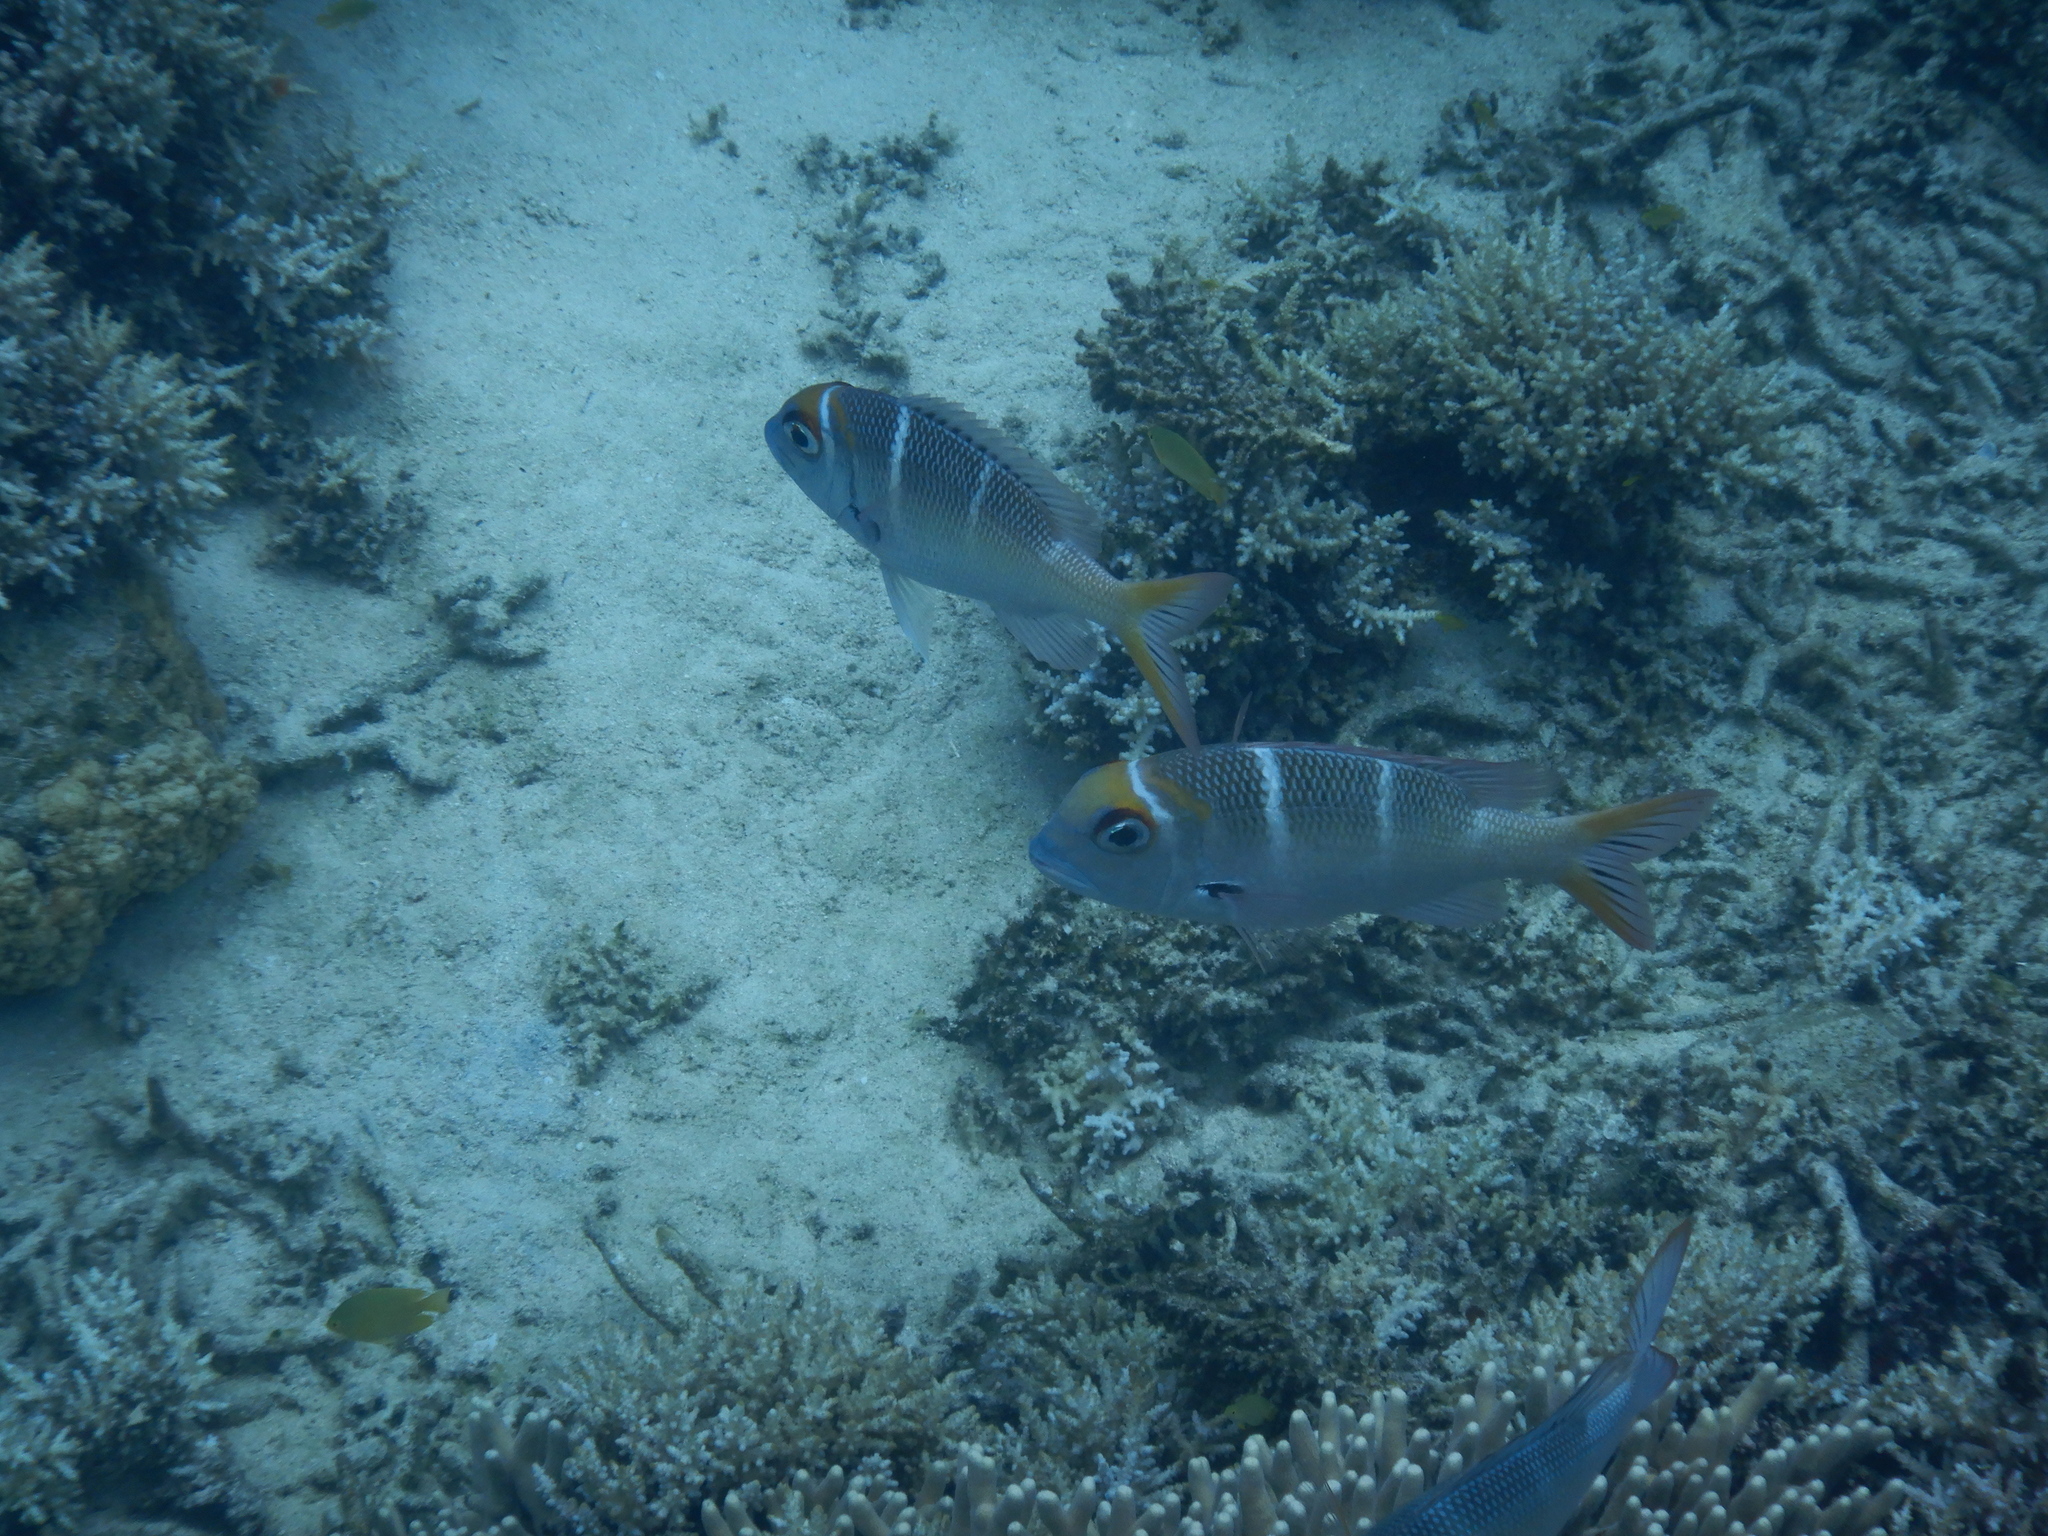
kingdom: Animalia
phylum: Chordata
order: Perciformes
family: Lethrinidae
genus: Monotaxis
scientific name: Monotaxis heterodon
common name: Redfin emperor
